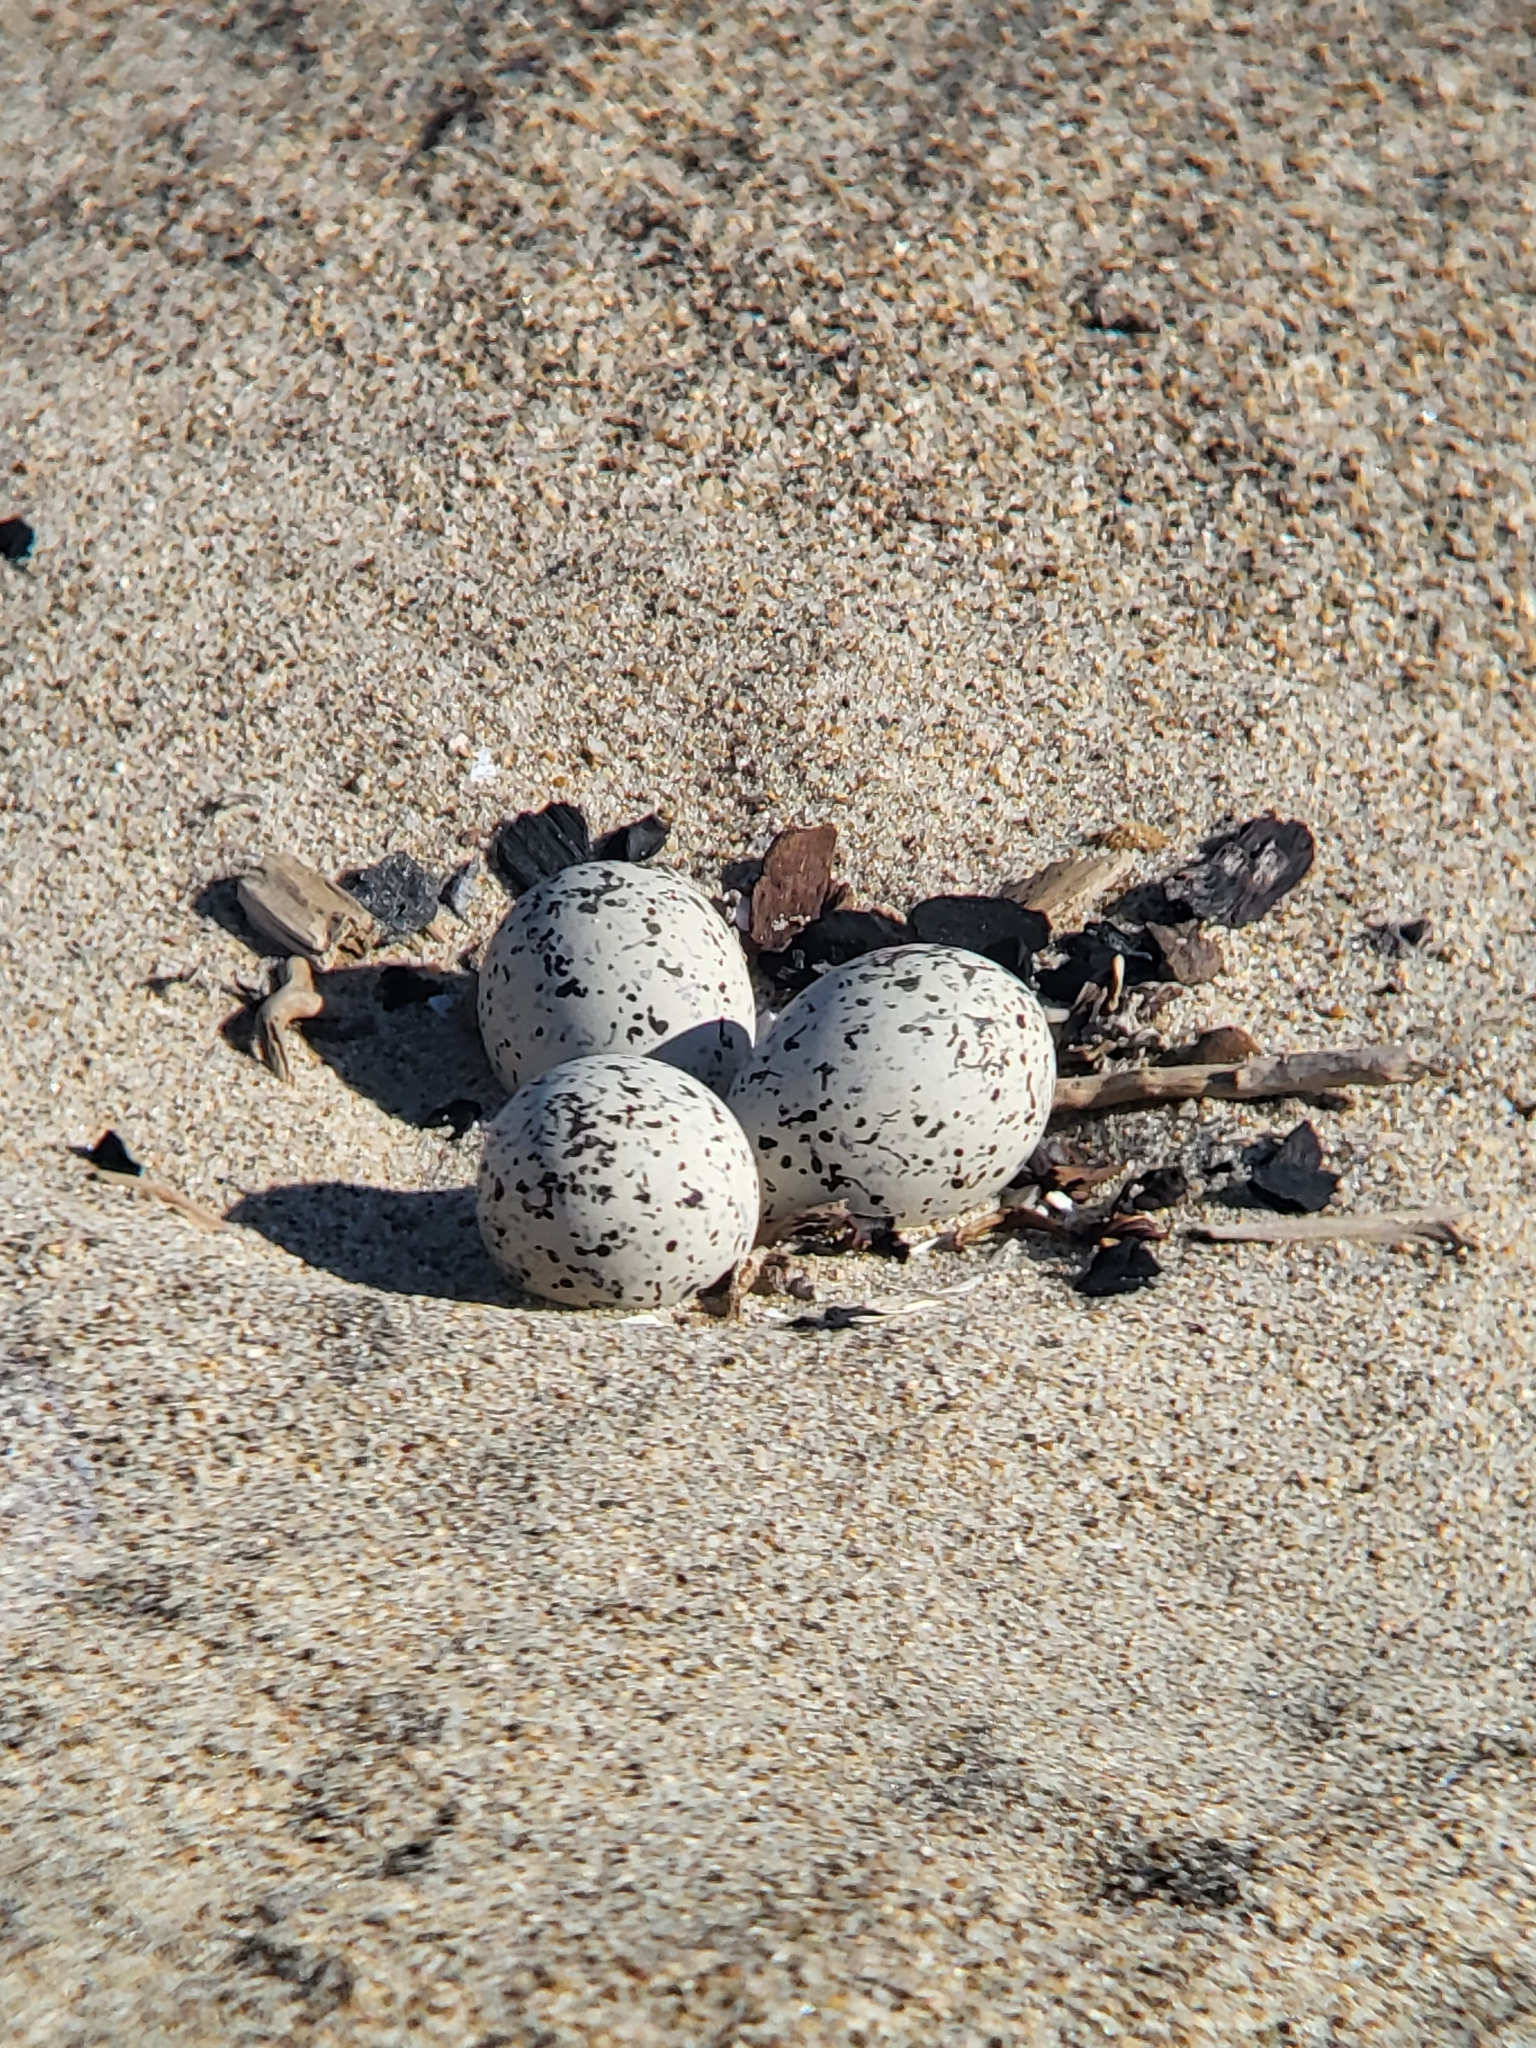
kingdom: Animalia
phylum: Chordata
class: Aves
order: Charadriiformes
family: Charadriidae
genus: Anarhynchus
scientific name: Anarhynchus
